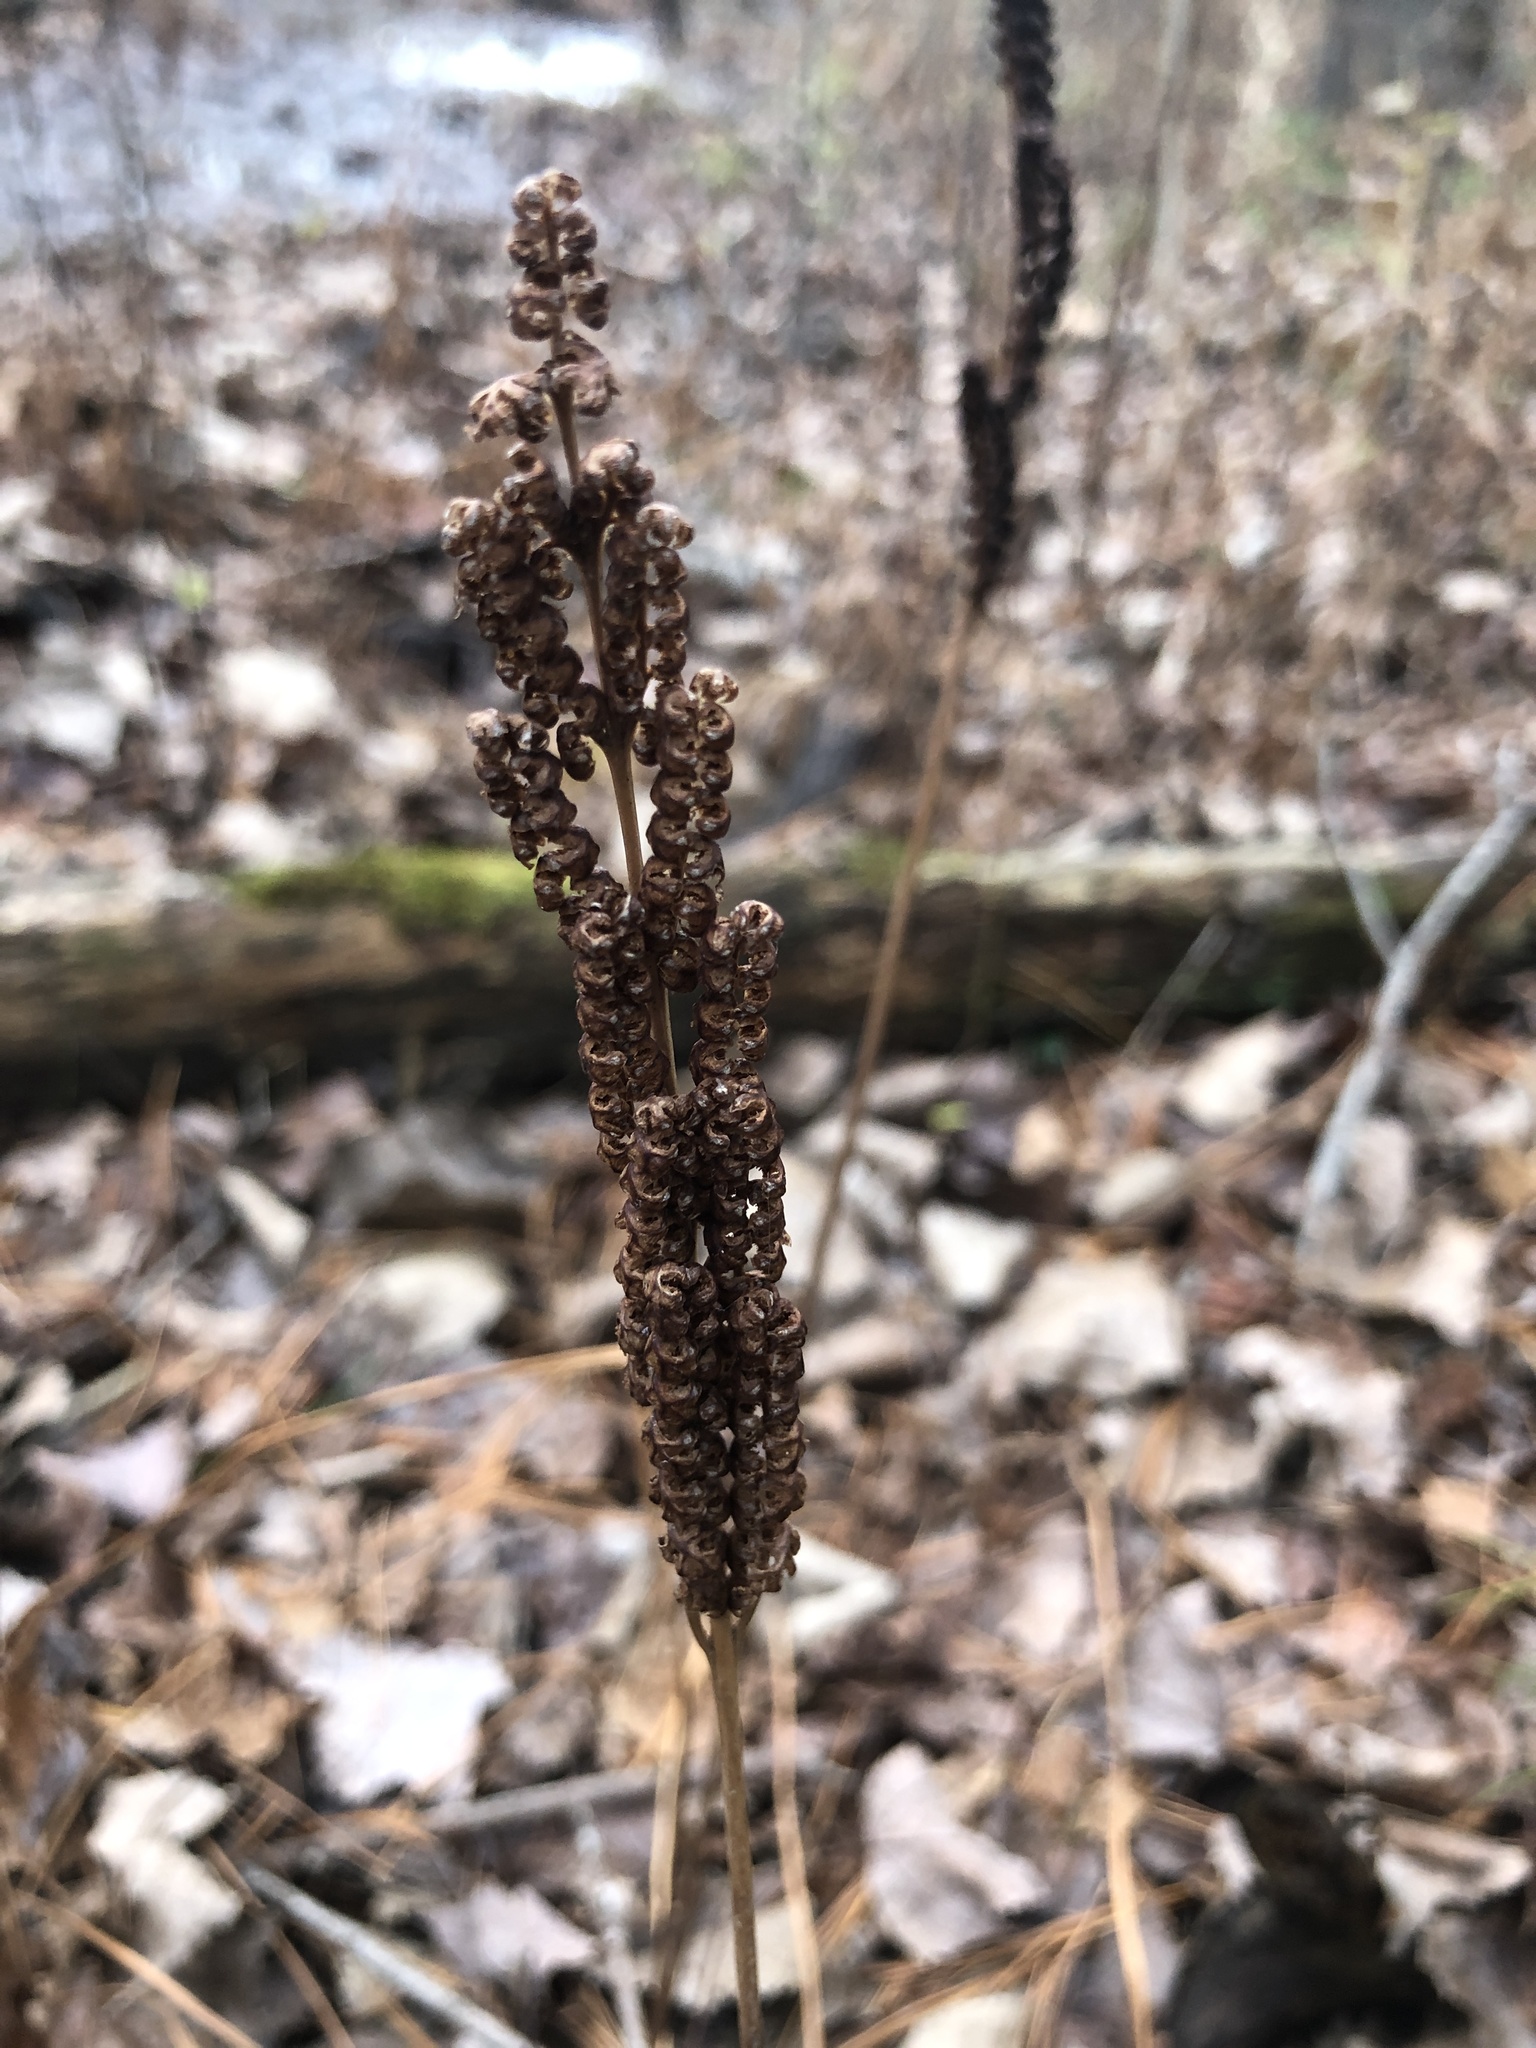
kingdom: Plantae
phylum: Tracheophyta
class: Polypodiopsida
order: Polypodiales
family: Onocleaceae
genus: Onoclea
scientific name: Onoclea sensibilis
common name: Sensitive fern
